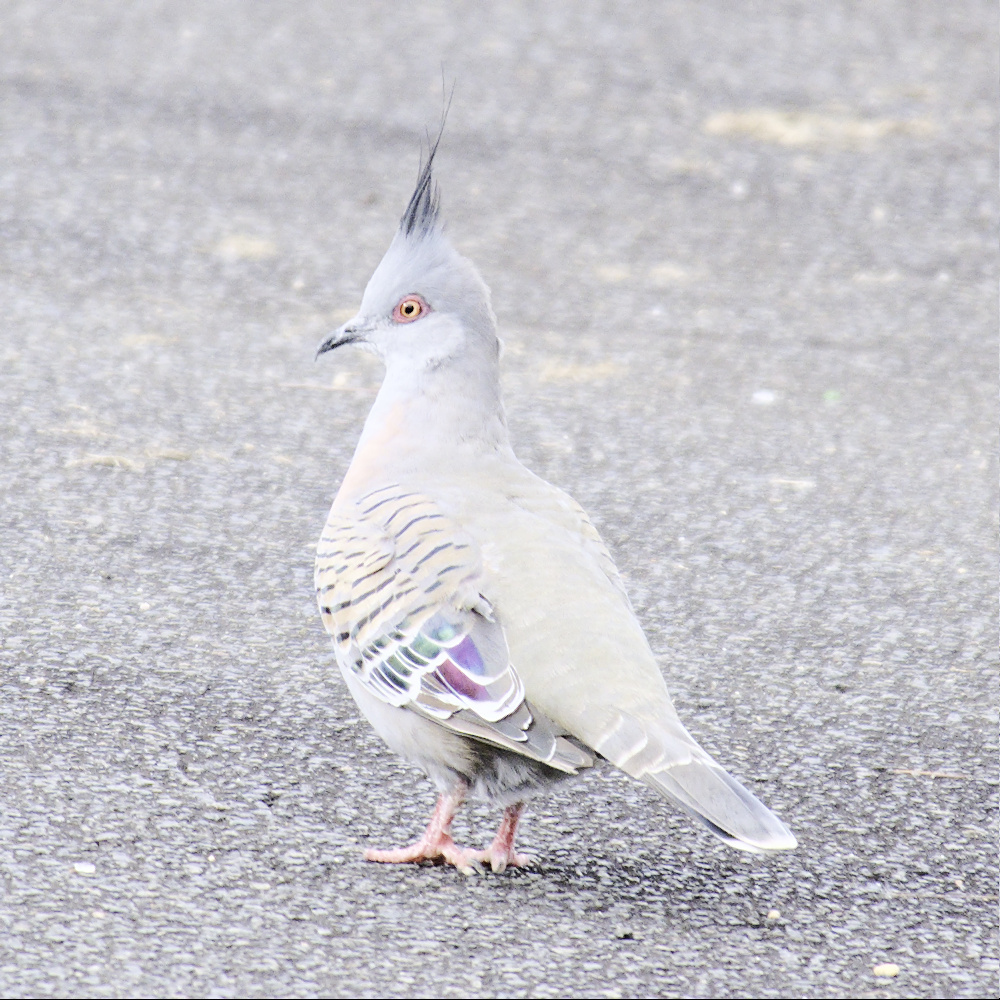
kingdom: Animalia
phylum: Chordata
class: Aves
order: Columbiformes
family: Columbidae
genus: Ocyphaps
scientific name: Ocyphaps lophotes
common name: Crested pigeon
